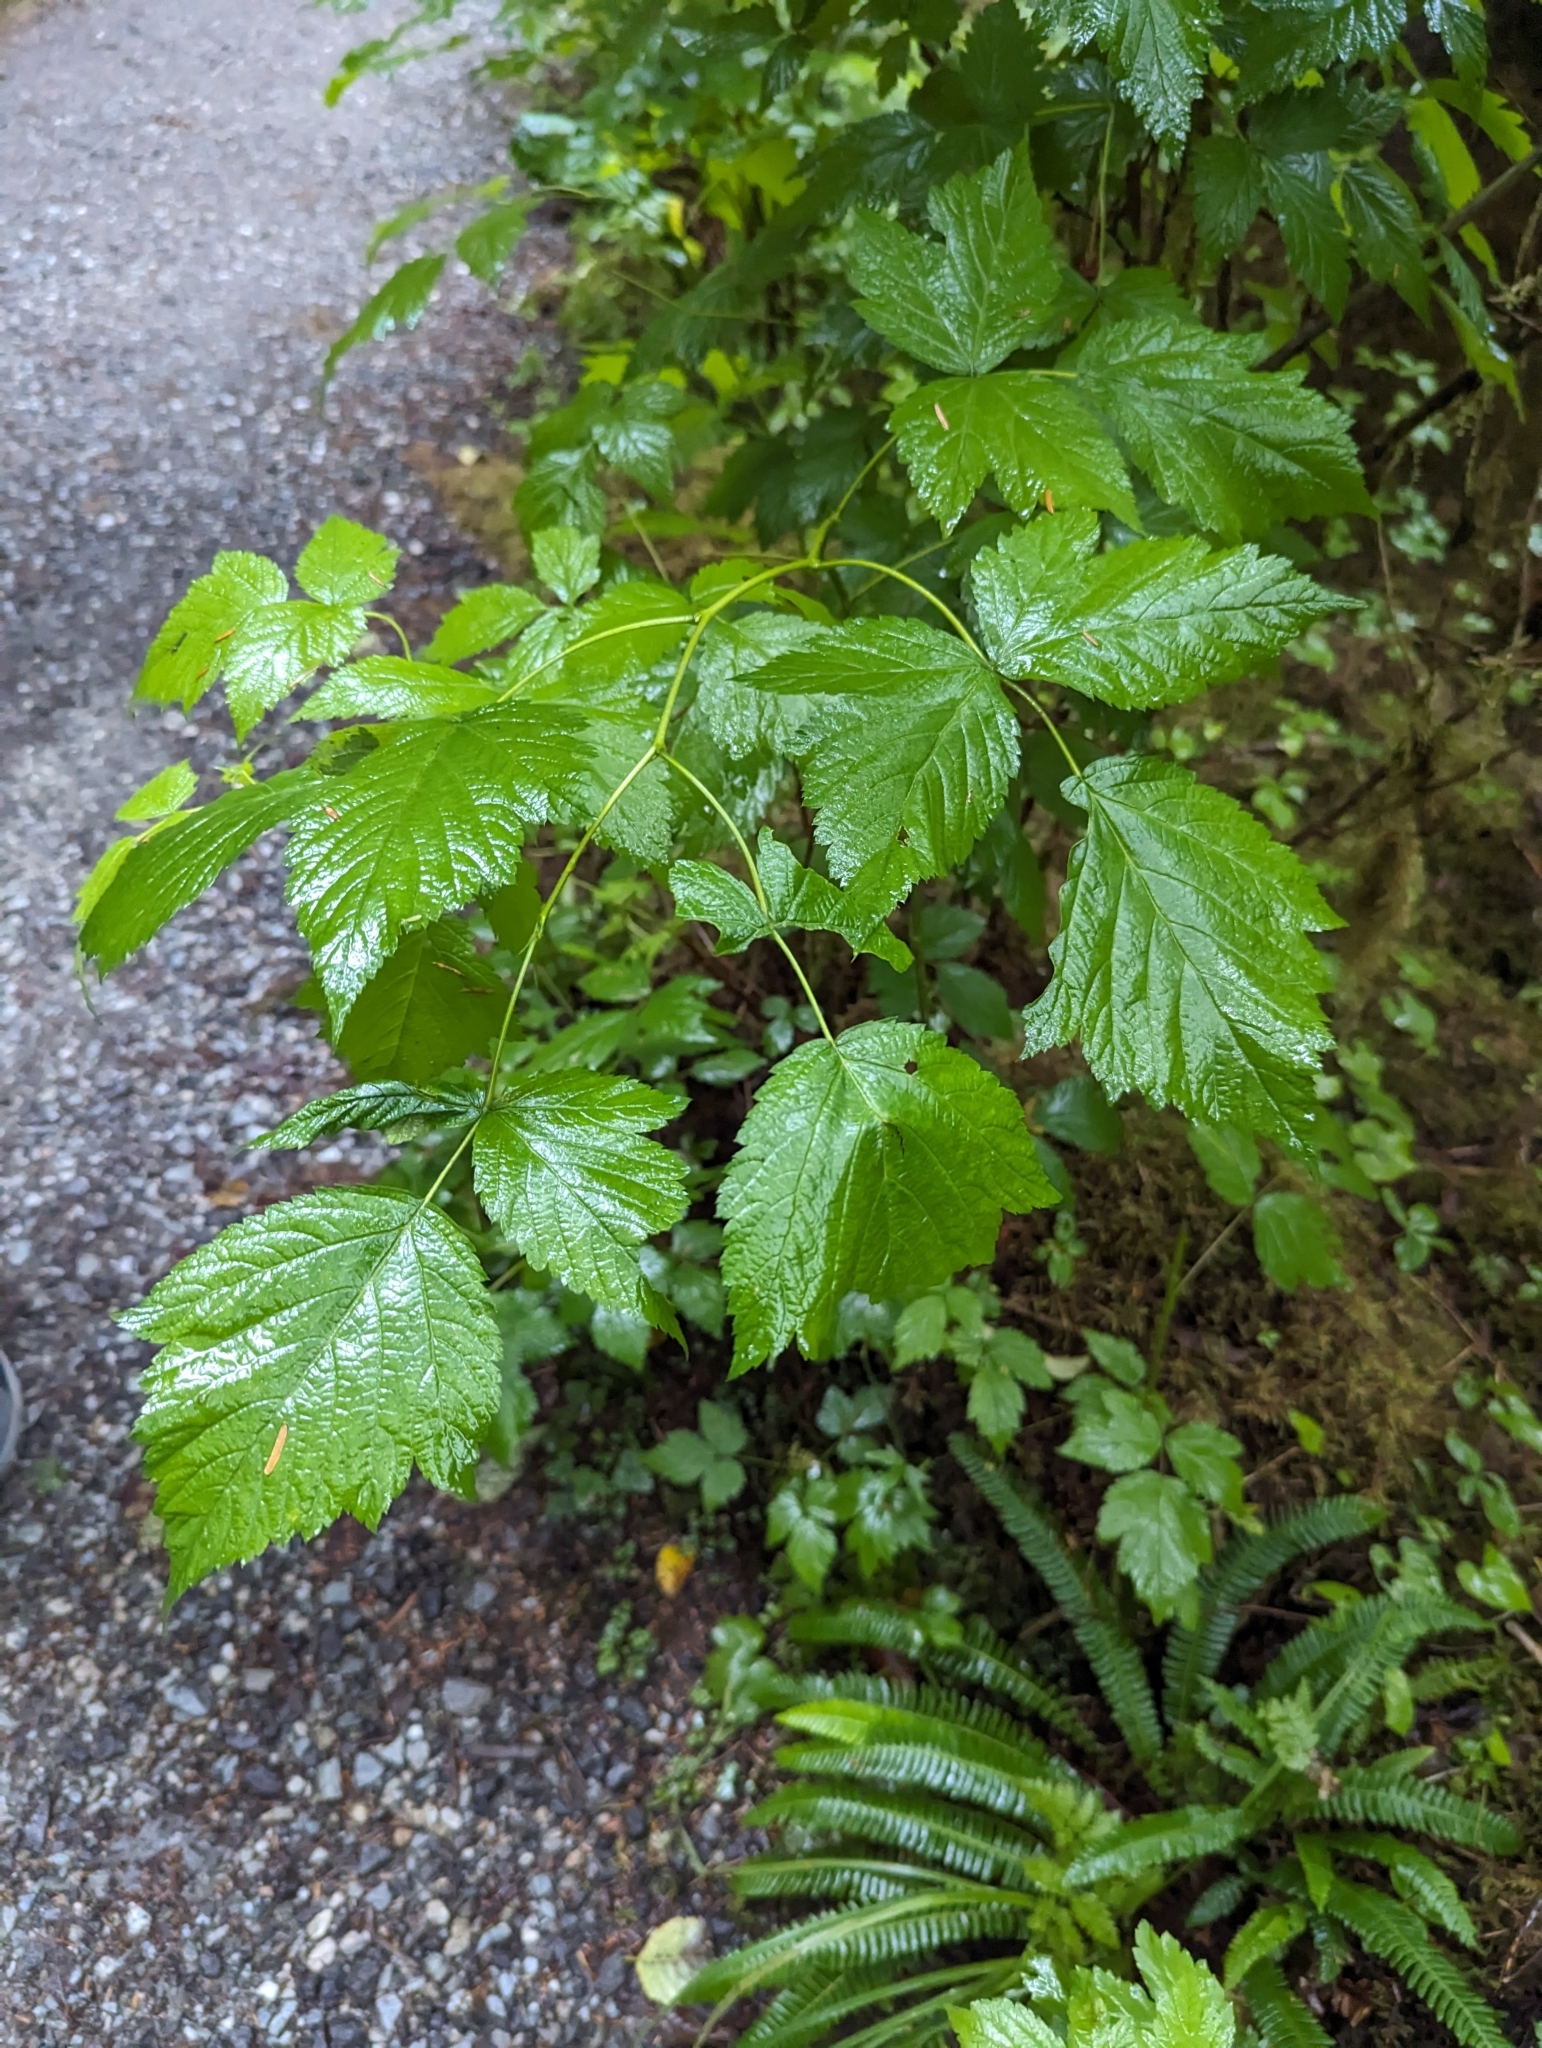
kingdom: Plantae
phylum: Tracheophyta
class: Magnoliopsida
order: Rosales
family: Rosaceae
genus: Rubus
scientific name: Rubus spectabilis
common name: Salmonberry
